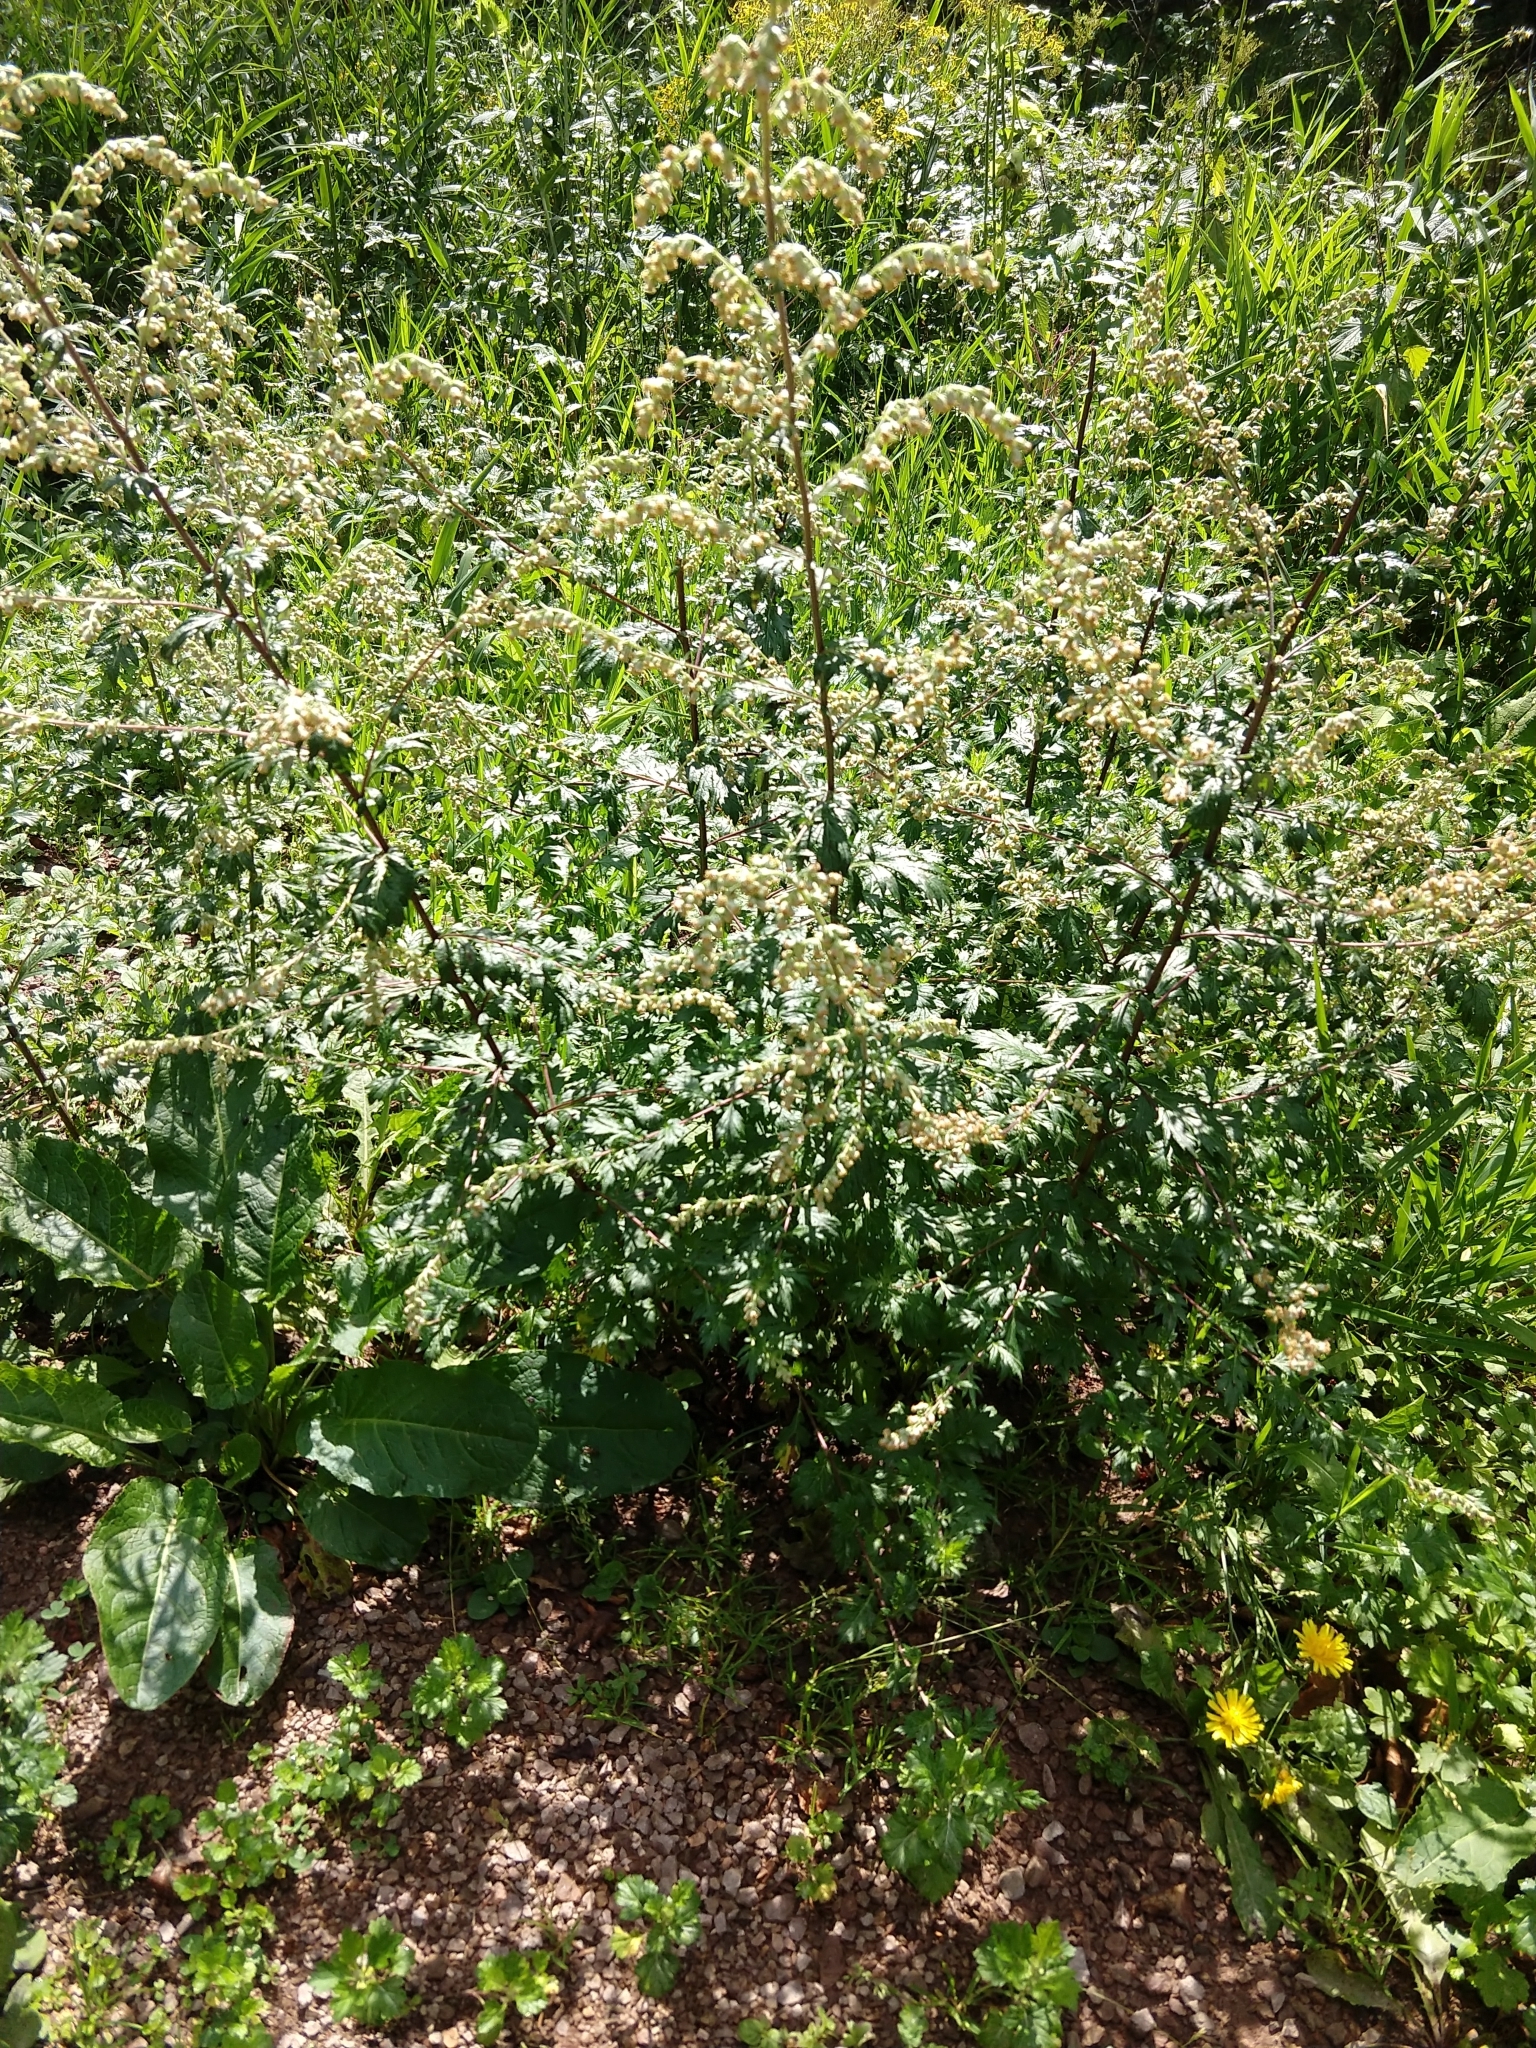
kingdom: Plantae
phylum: Tracheophyta
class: Magnoliopsida
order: Asterales
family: Asteraceae
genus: Artemisia
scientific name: Artemisia vulgaris
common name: Mugwort
